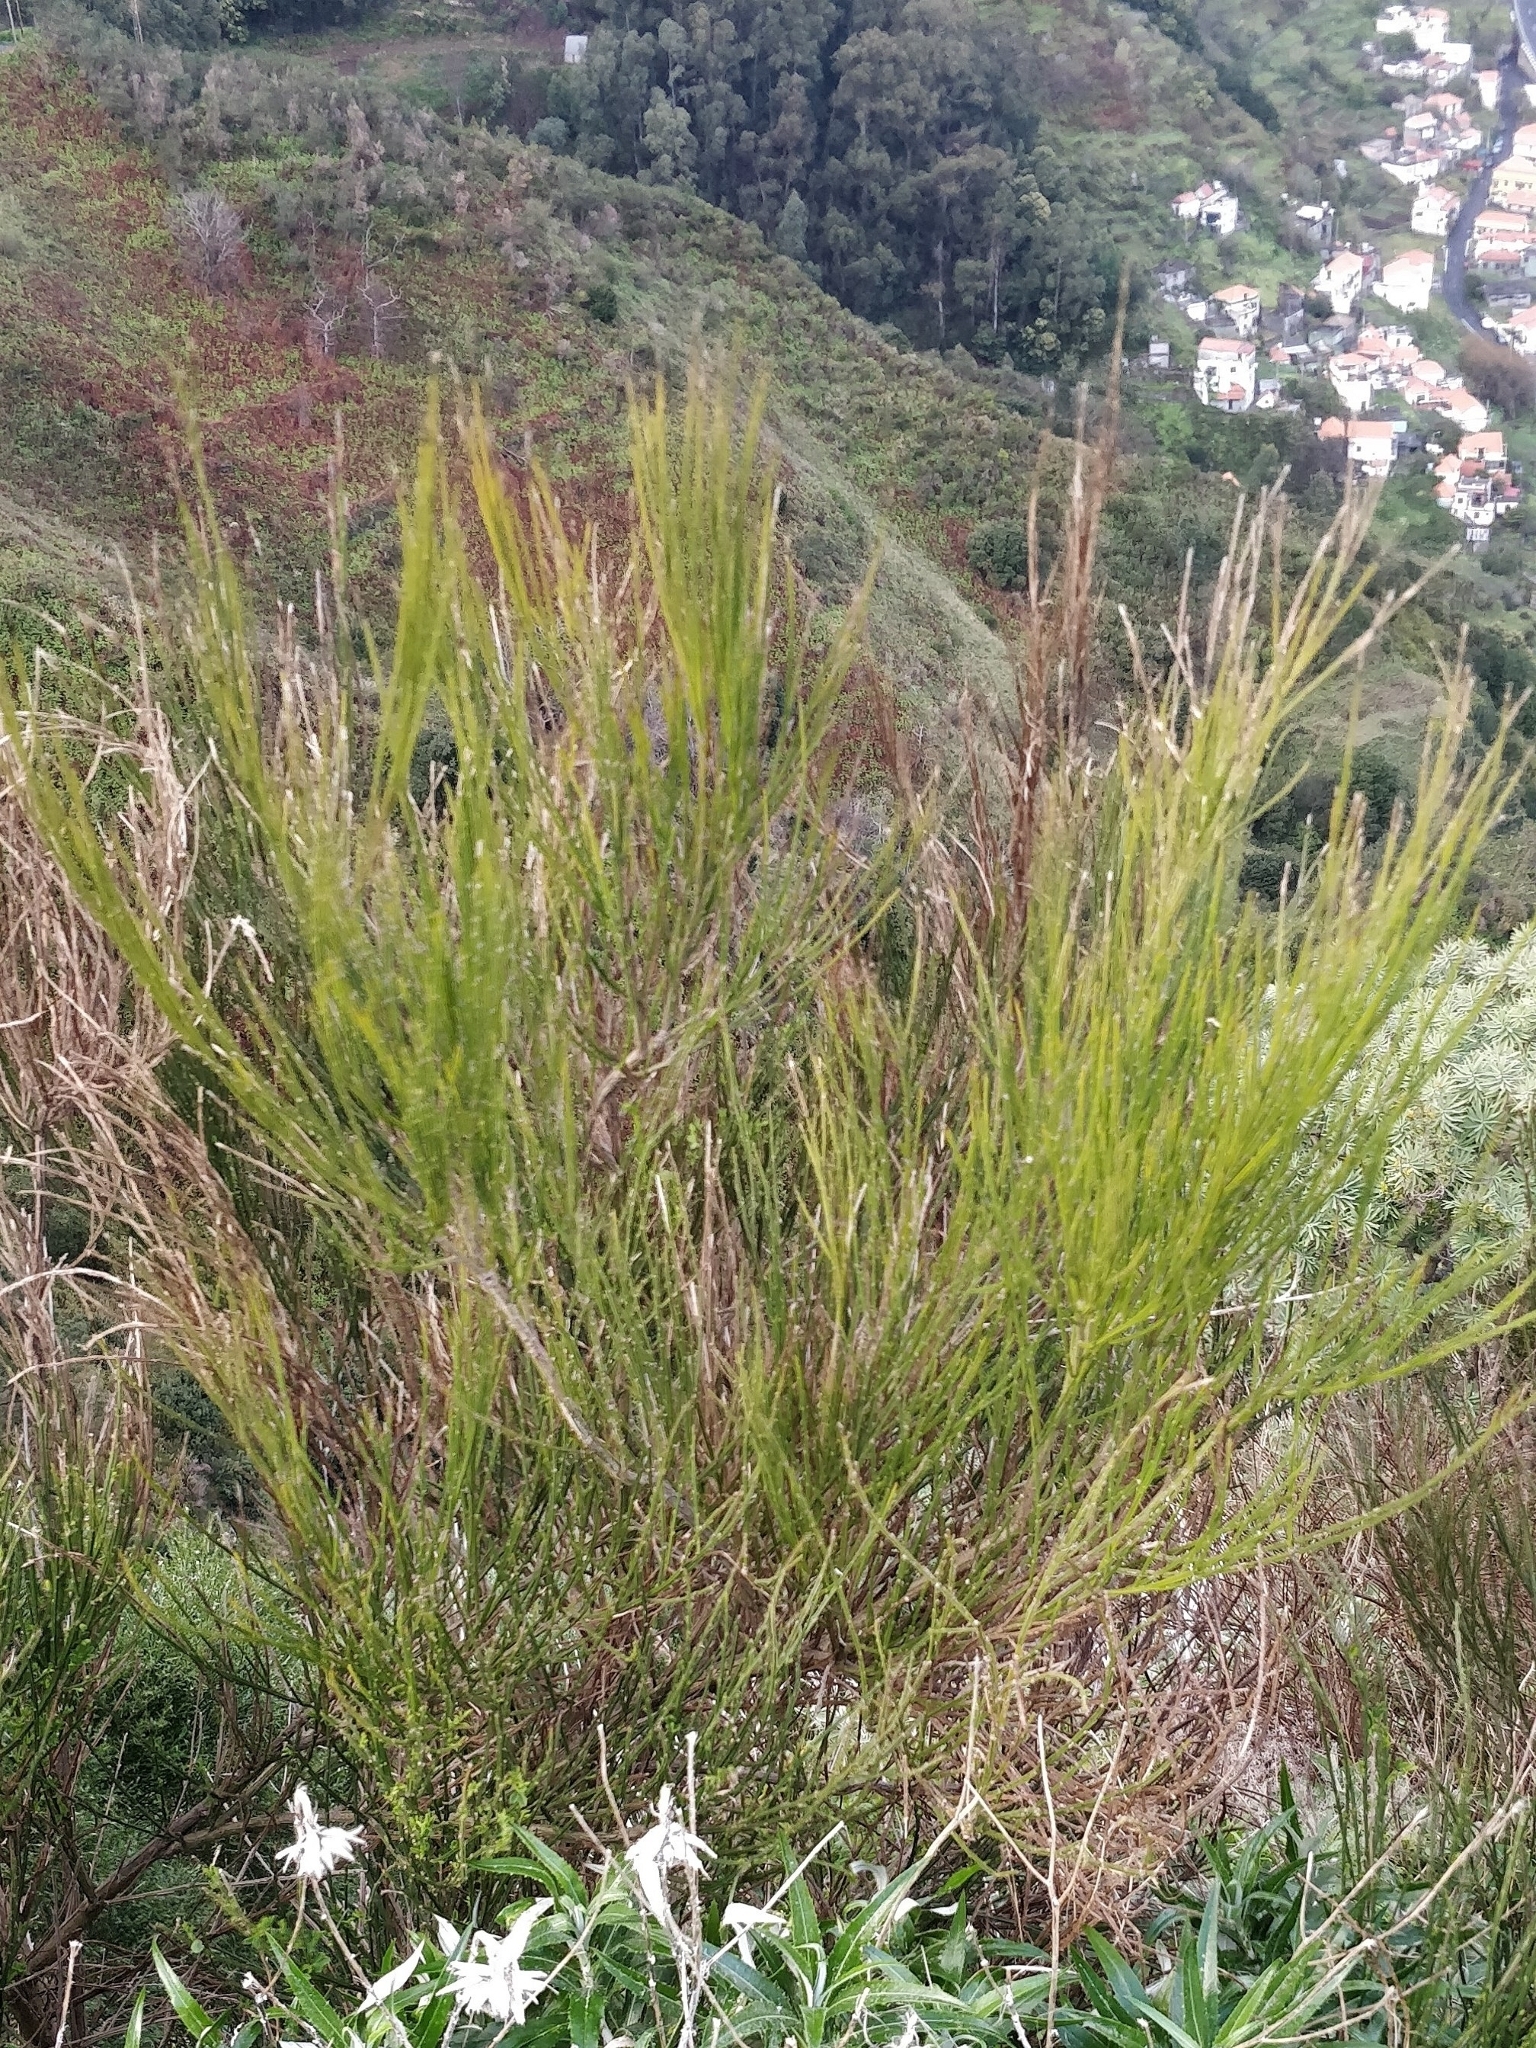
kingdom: Plantae
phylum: Tracheophyta
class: Magnoliopsida
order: Fabales
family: Fabaceae
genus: Cytisus
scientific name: Cytisus scoparius
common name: Scotch broom
